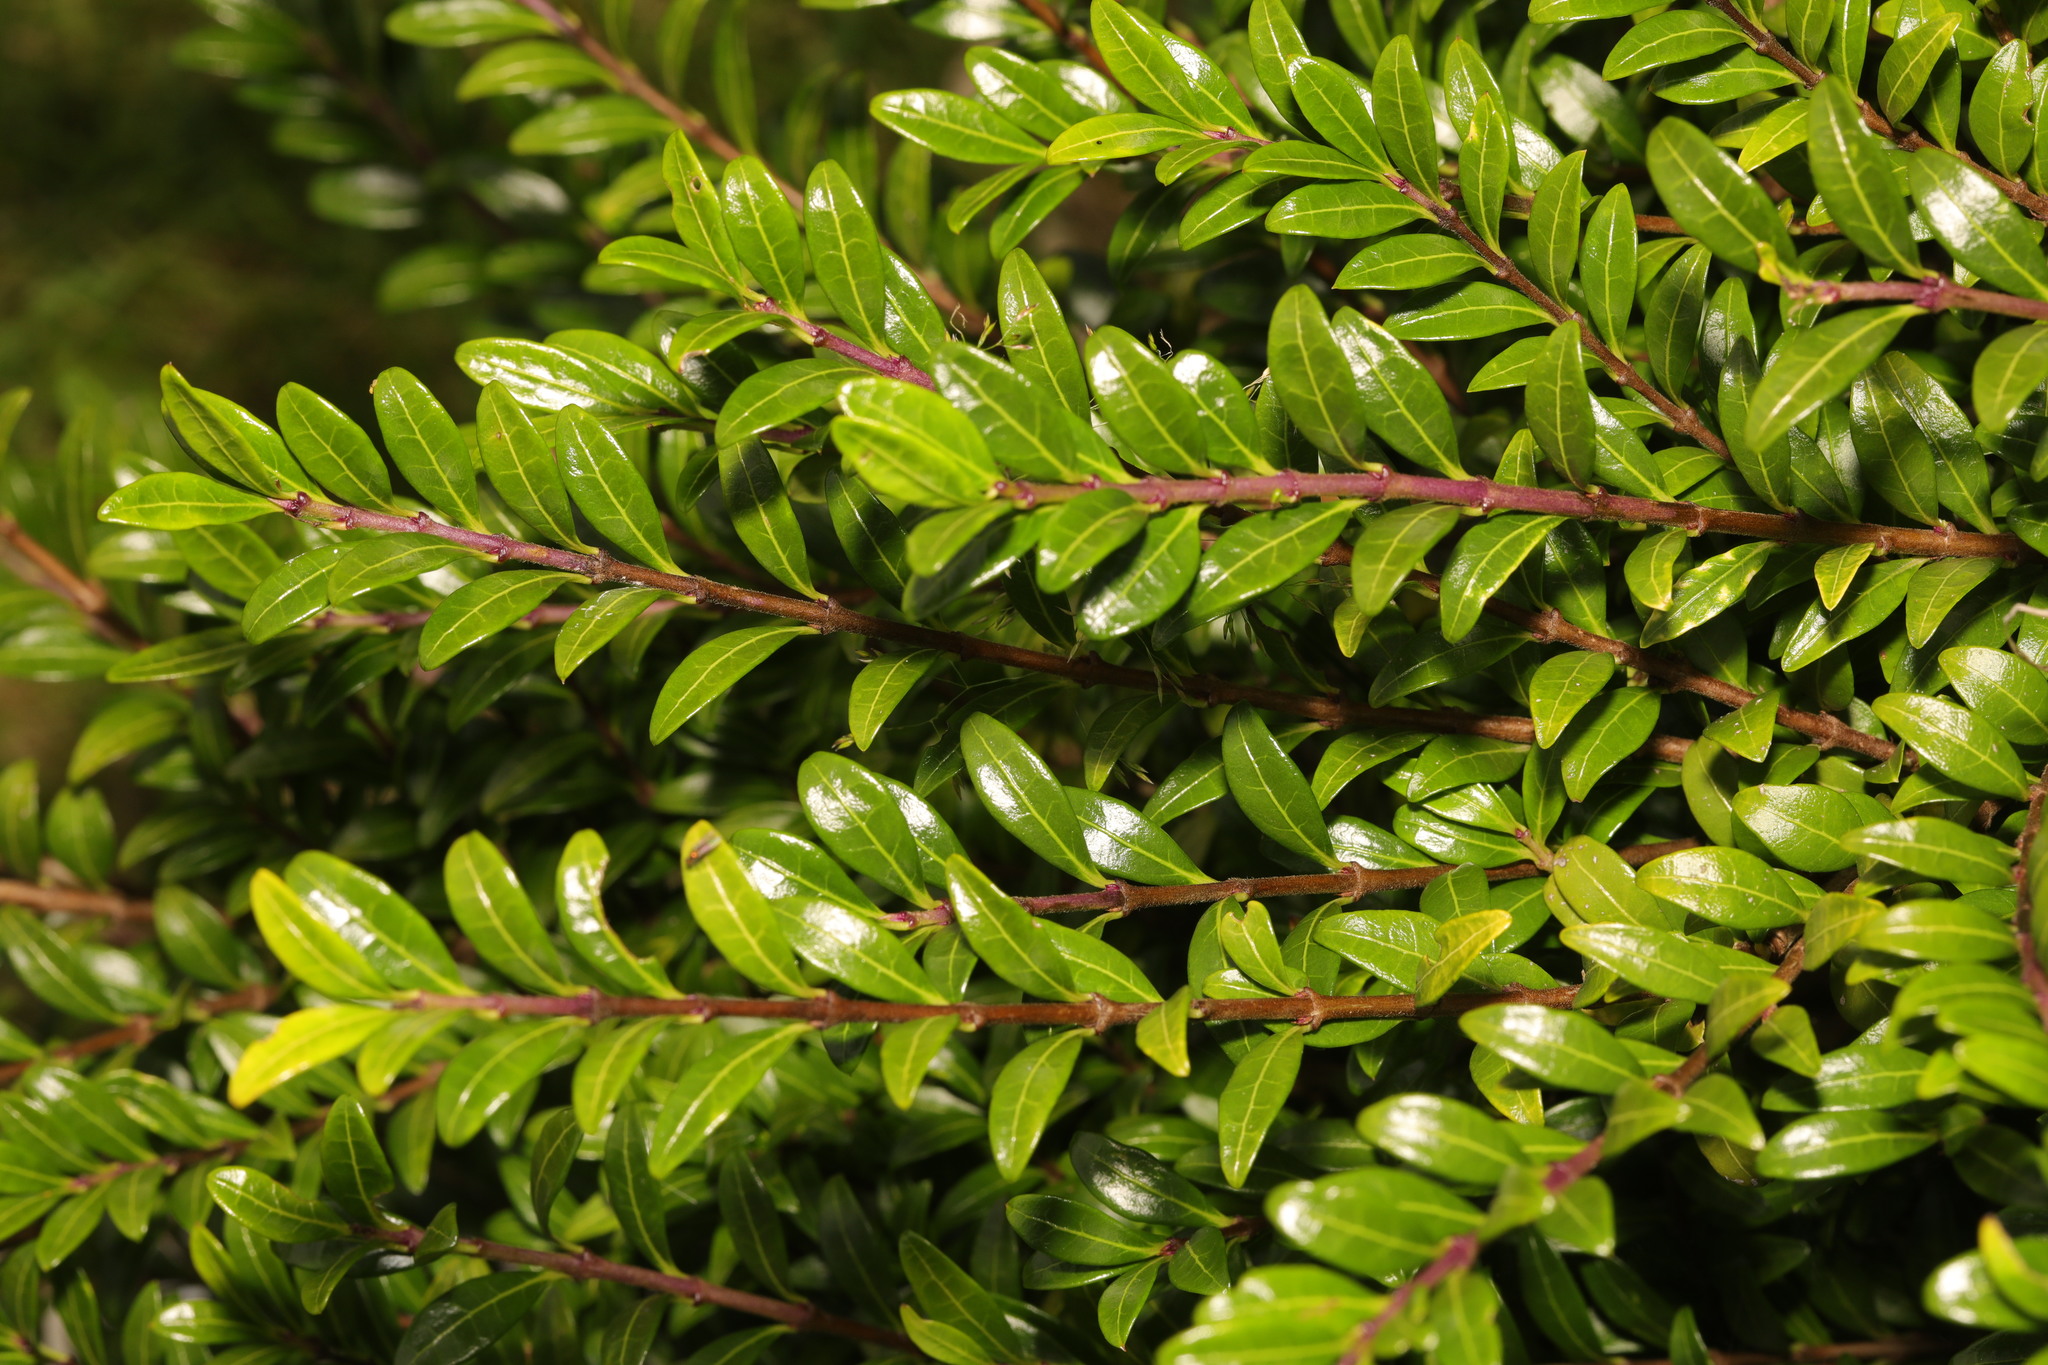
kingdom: Plantae
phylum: Tracheophyta
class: Magnoliopsida
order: Dipsacales
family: Caprifoliaceae
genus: Lonicera
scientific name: Lonicera pileata
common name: Box-leaved honeysuckle
